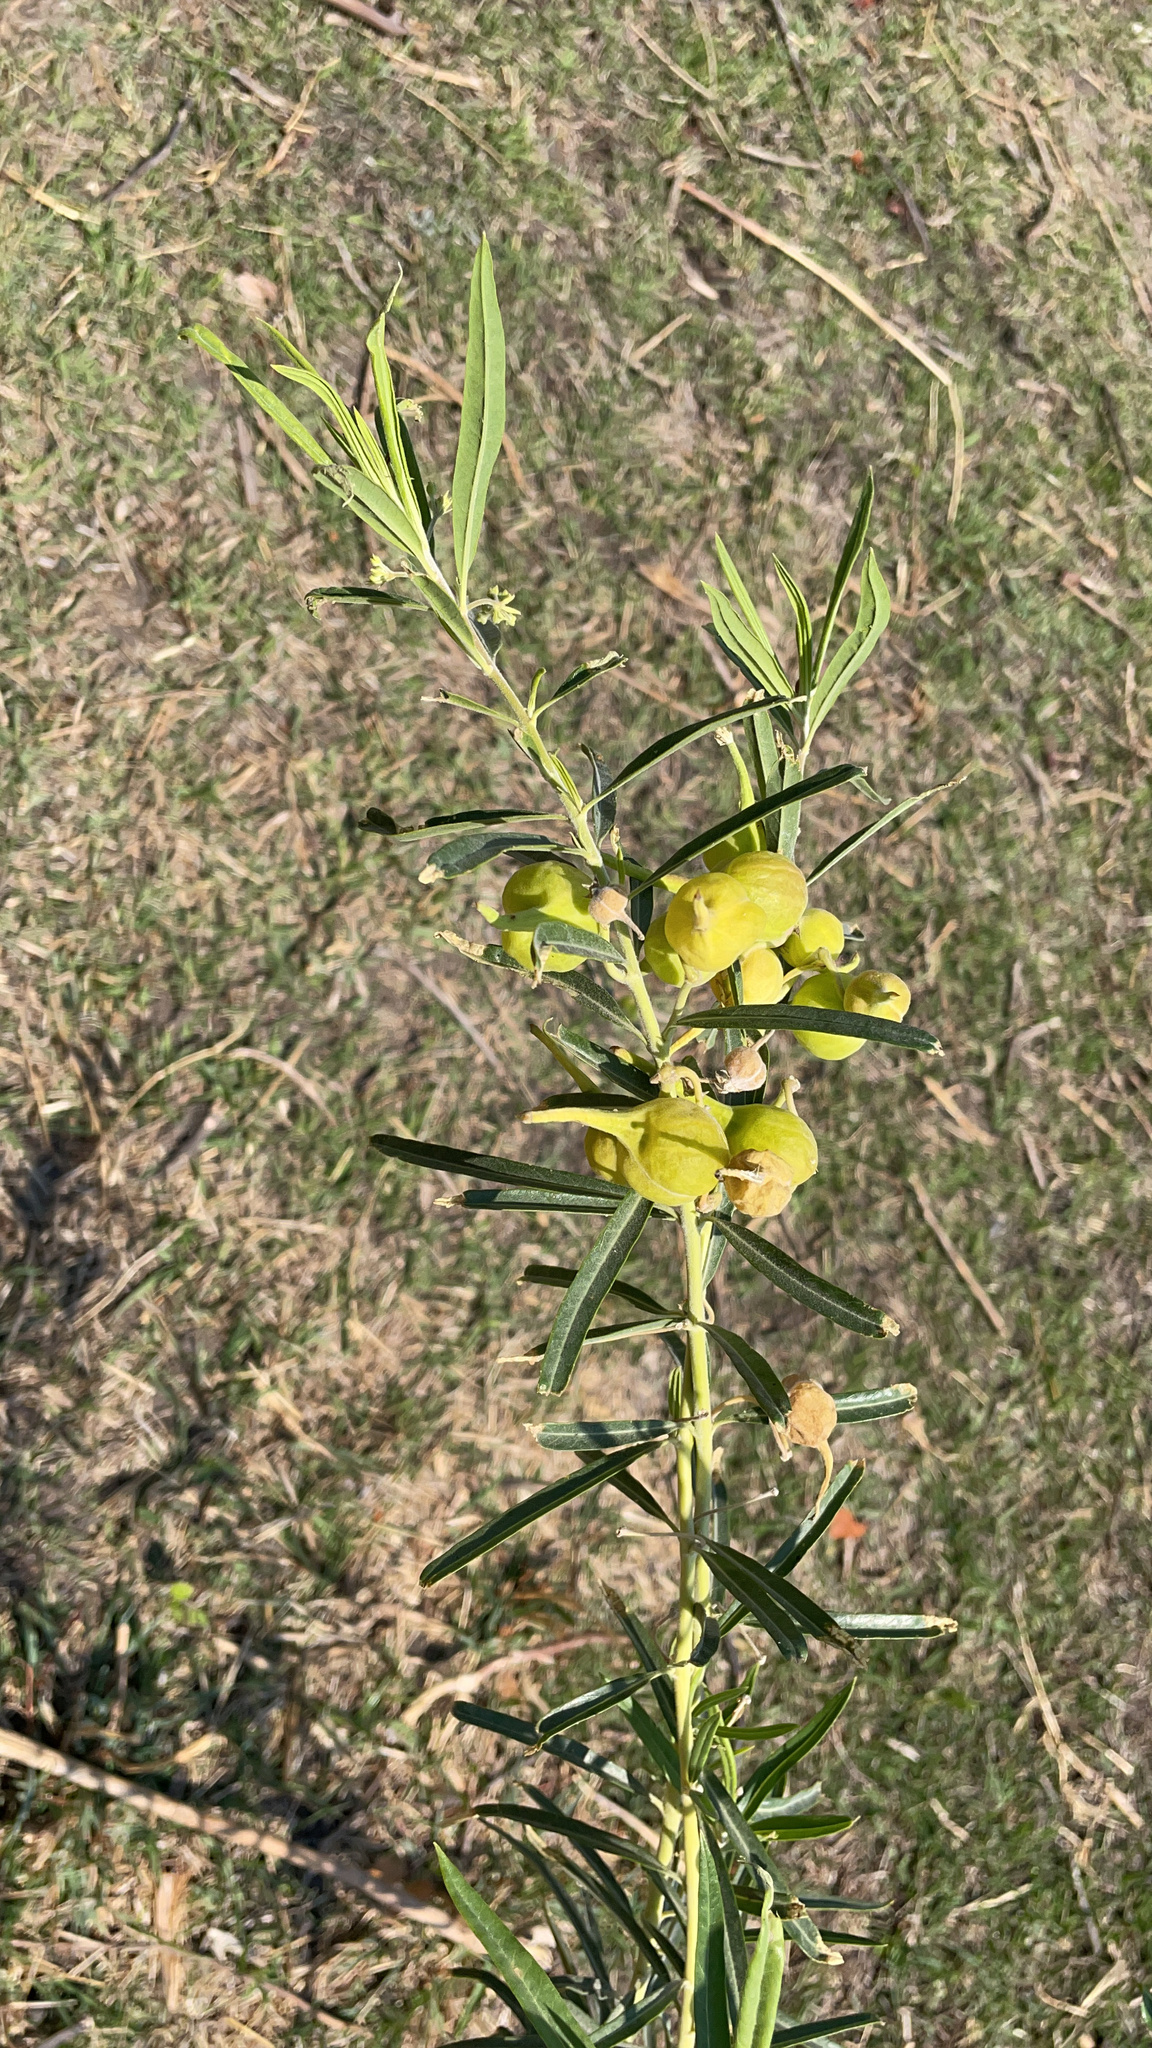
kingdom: Plantae
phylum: Tracheophyta
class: Magnoliopsida
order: Gentianales
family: Apocynaceae
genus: Gomphocarpus
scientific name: Gomphocarpus fruticosus
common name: Milkweed
